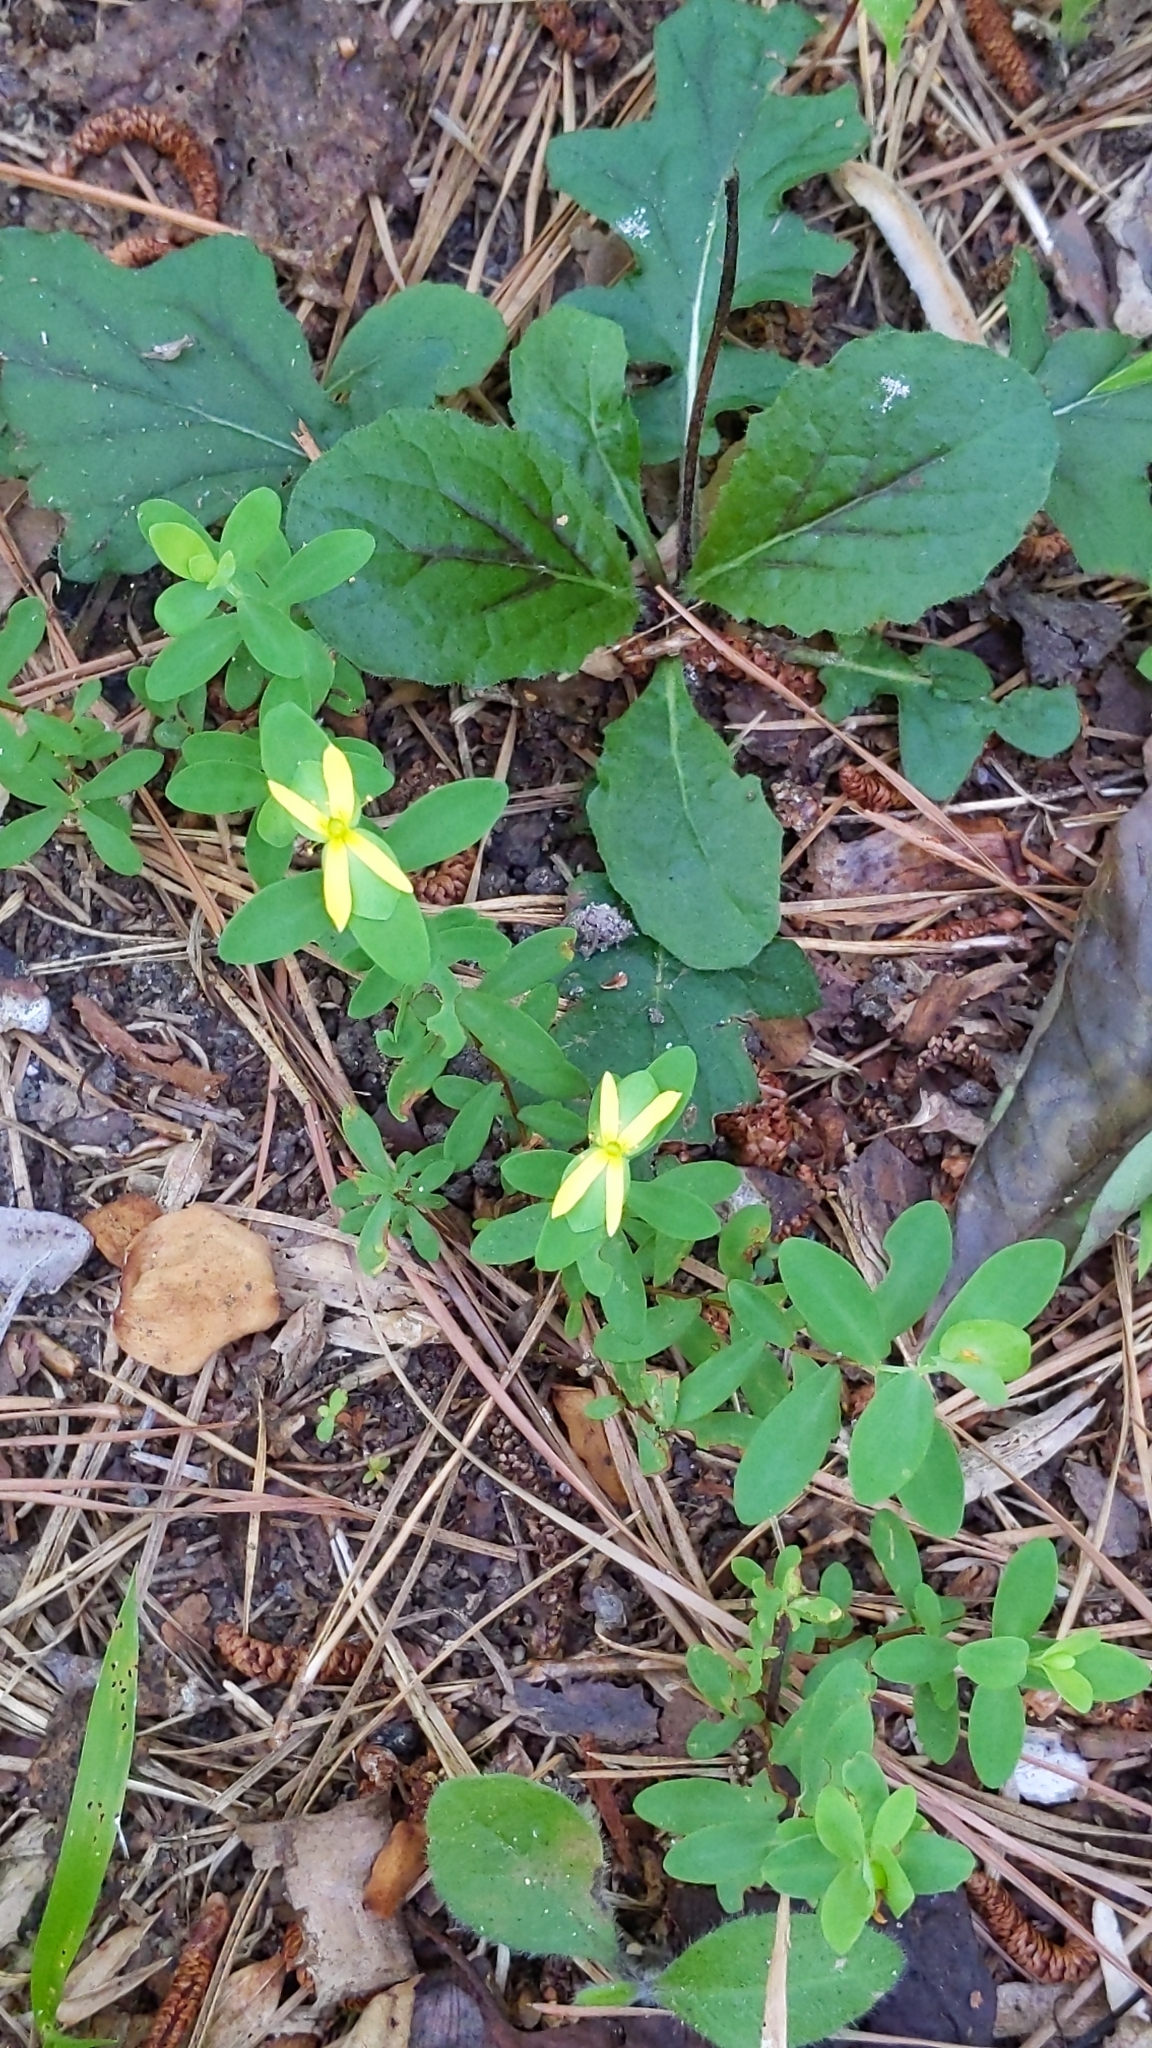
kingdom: Plantae
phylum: Tracheophyta
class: Magnoliopsida
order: Malpighiales
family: Hypericaceae
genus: Hypericum
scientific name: Hypericum hypericoides
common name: St. andrew's cross
